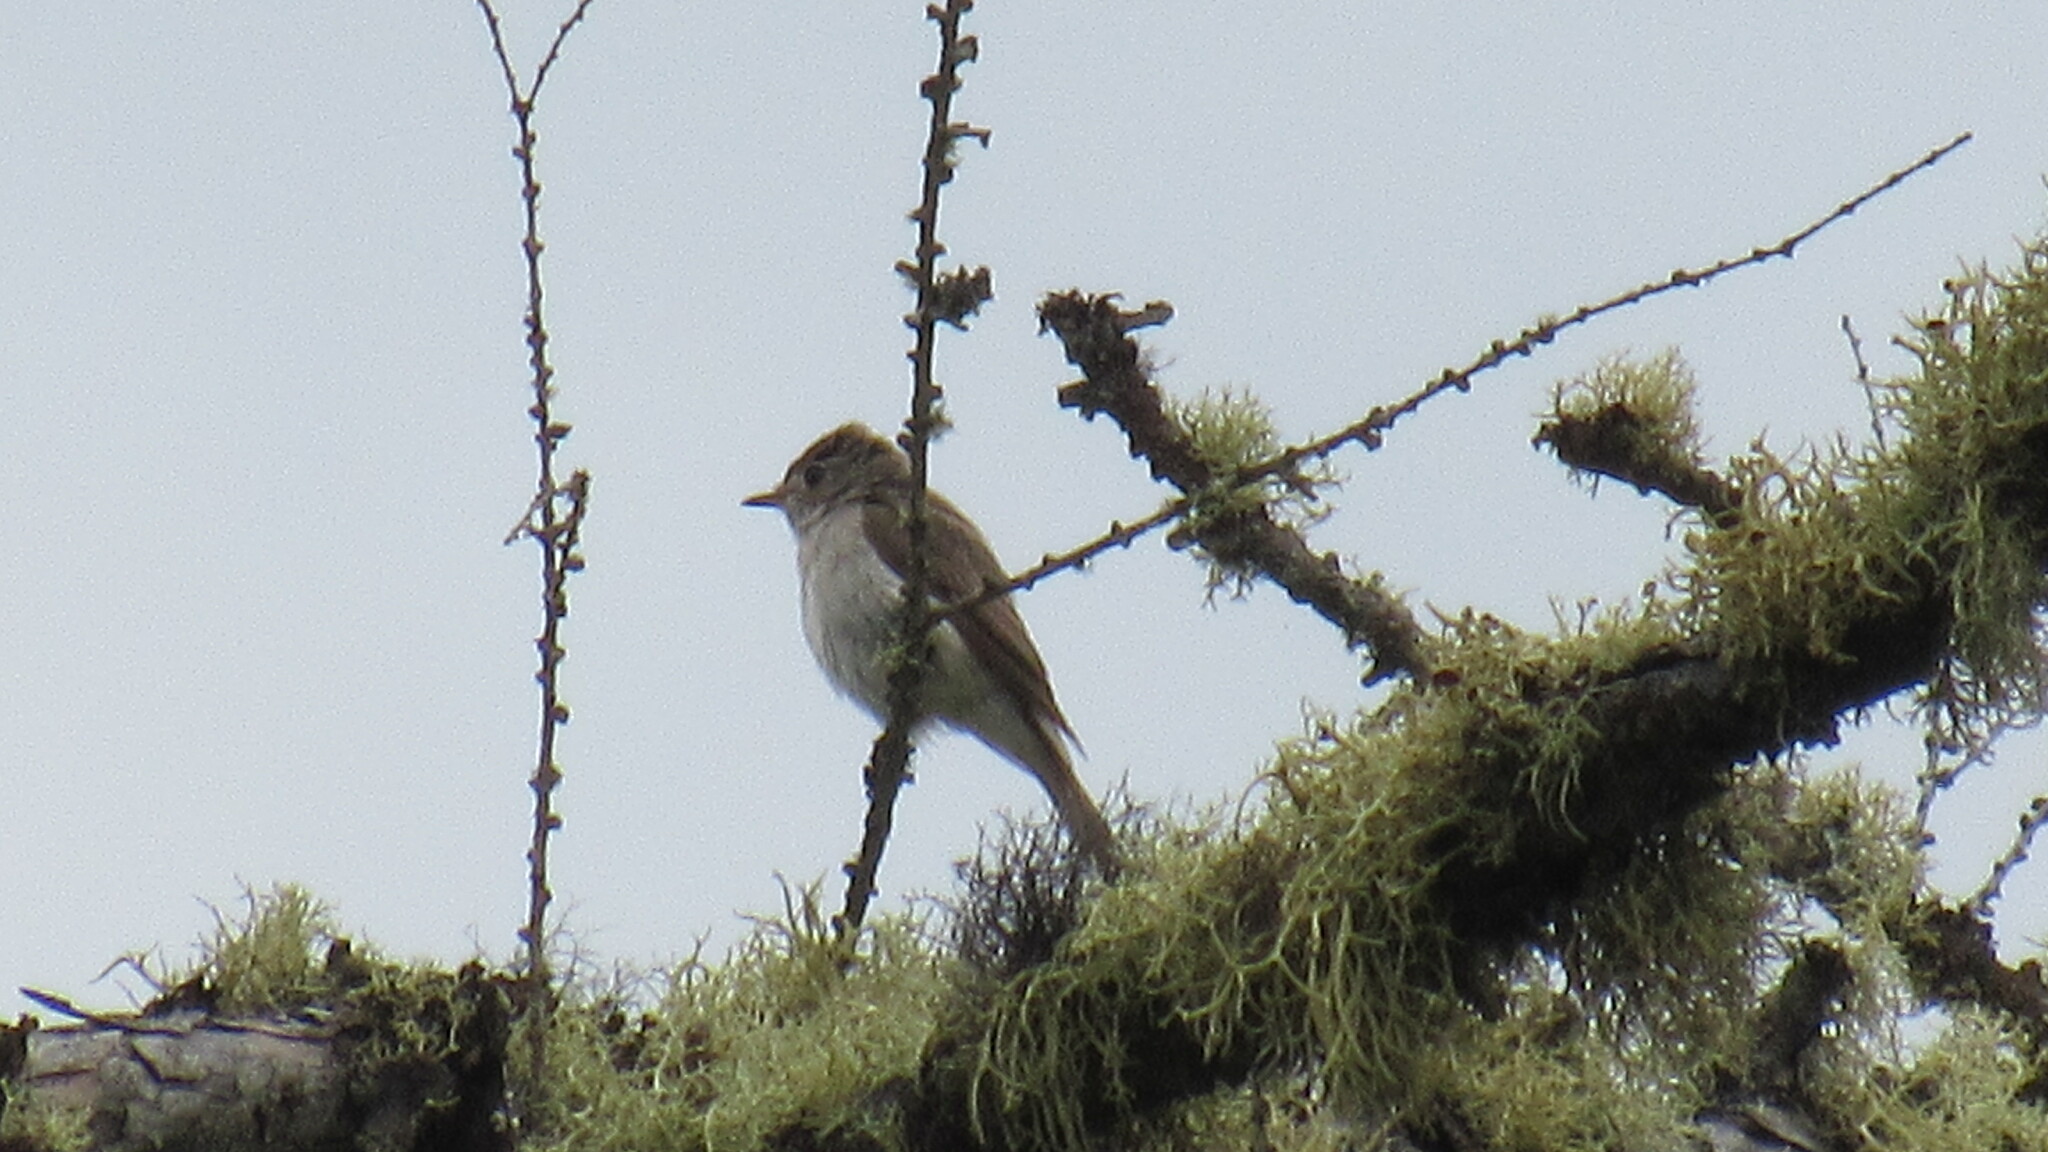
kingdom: Animalia
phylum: Chordata
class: Aves
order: Passeriformes
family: Muscicapidae
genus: Muscicapa
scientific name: Muscicapa latirostris
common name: Asian brown flycatcher
